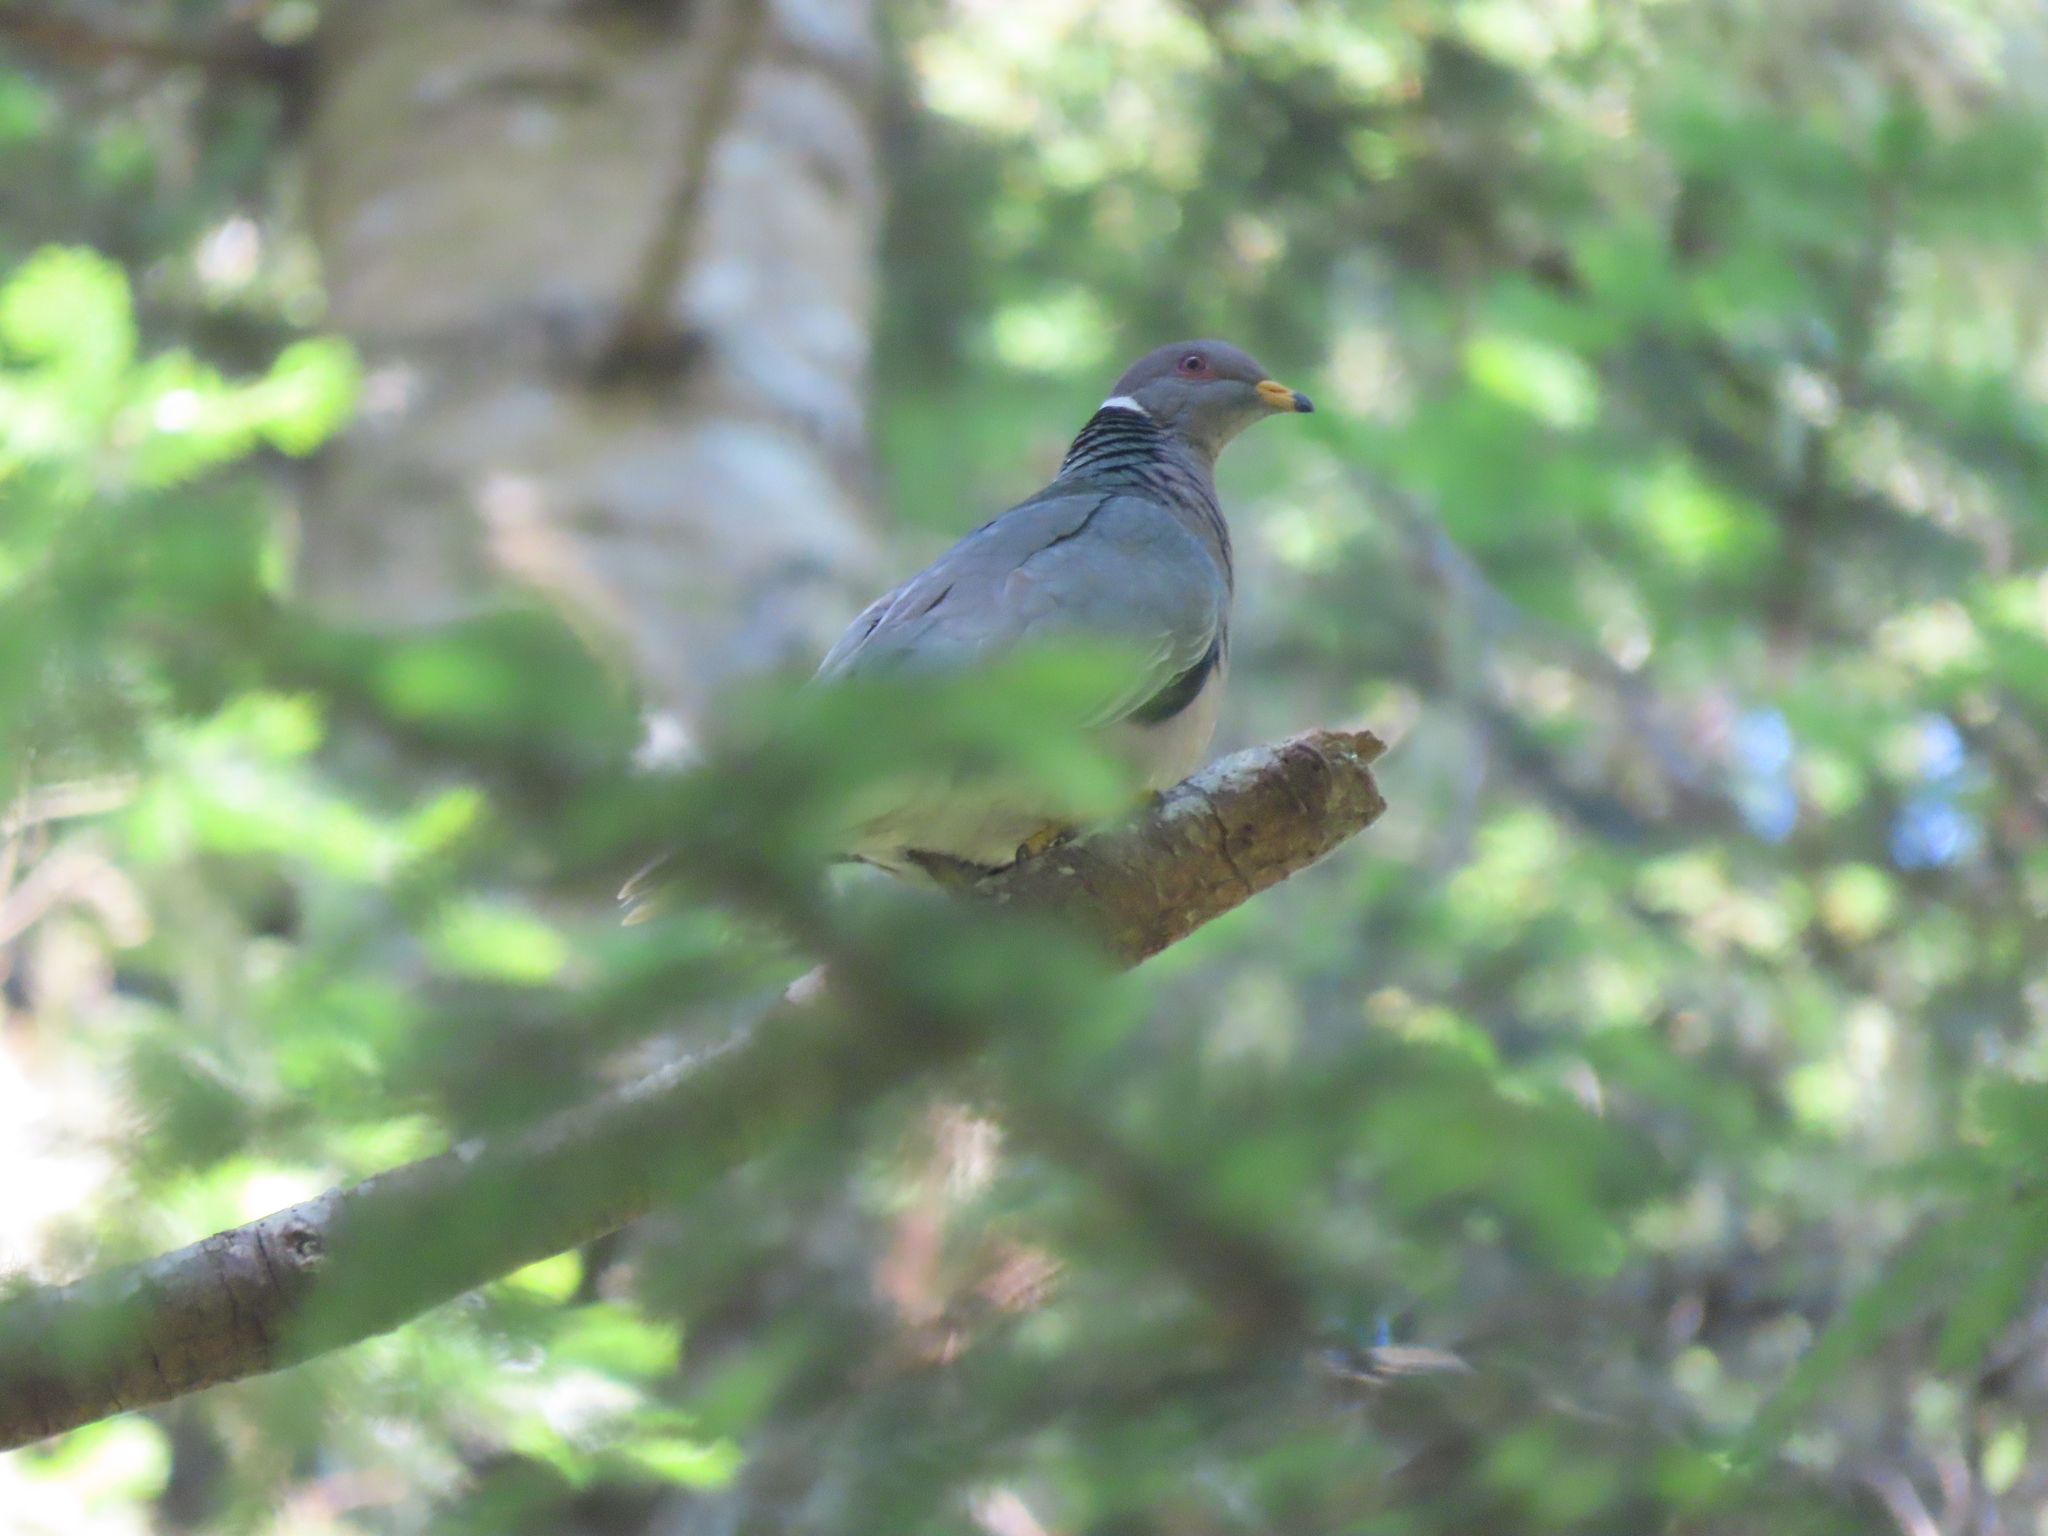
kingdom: Animalia
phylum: Chordata
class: Aves
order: Columbiformes
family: Columbidae
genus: Patagioenas
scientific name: Patagioenas fasciata
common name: Band-tailed pigeon
